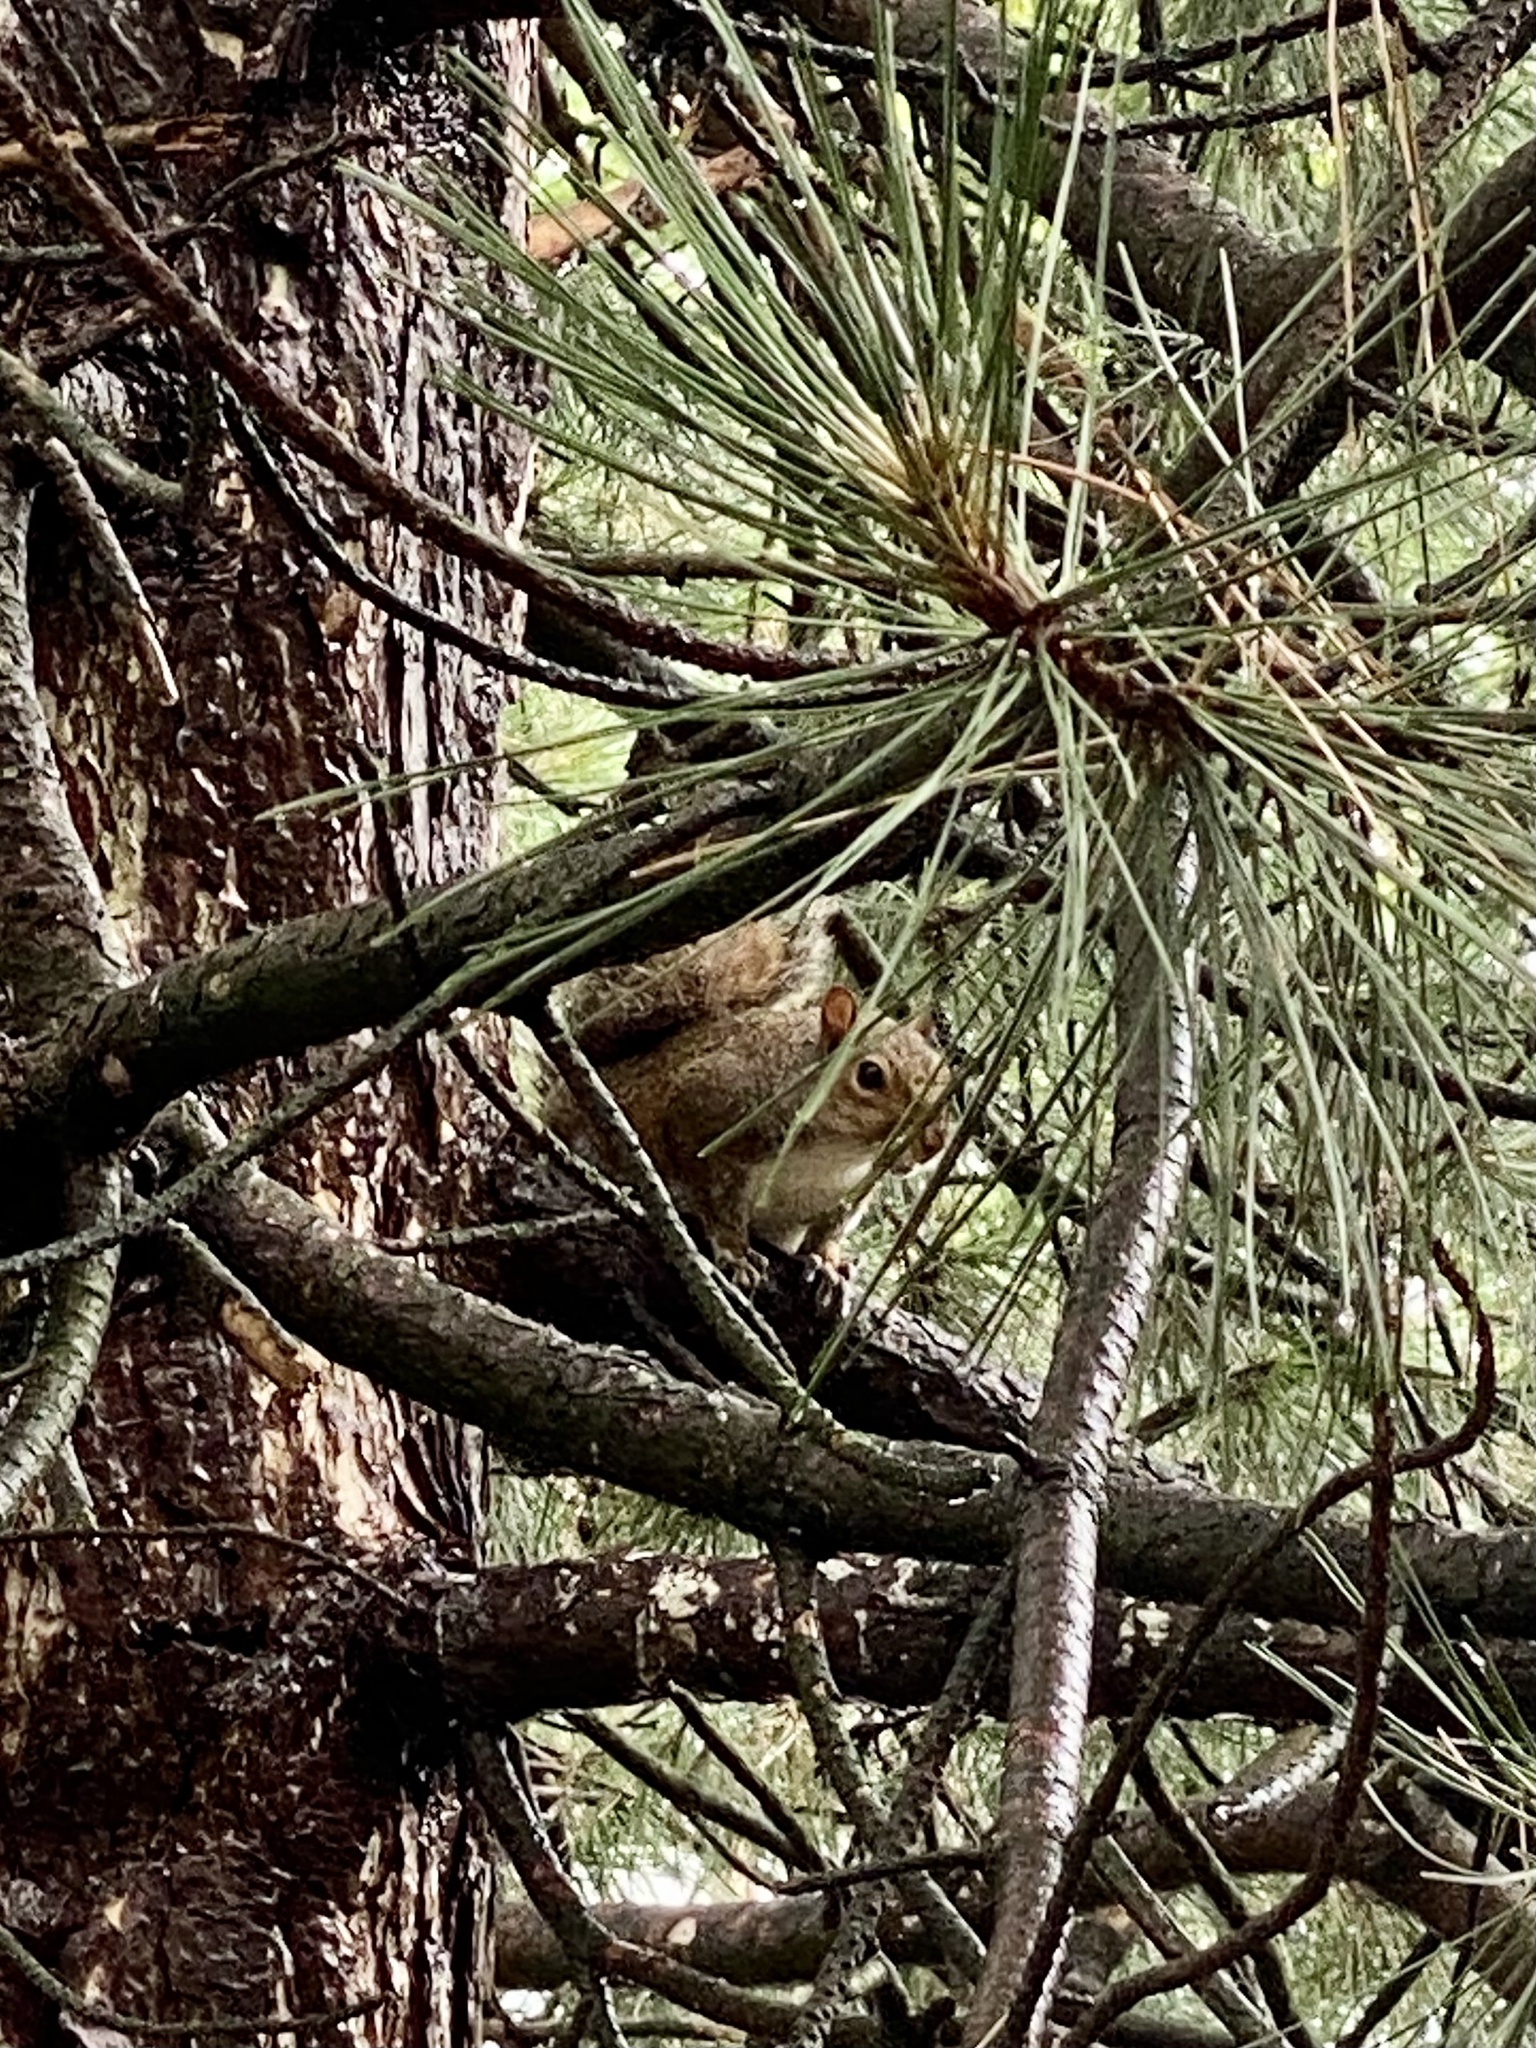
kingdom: Animalia
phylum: Chordata
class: Mammalia
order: Rodentia
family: Sciuridae
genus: Sciurus
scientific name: Sciurus carolinensis
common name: Eastern gray squirrel
